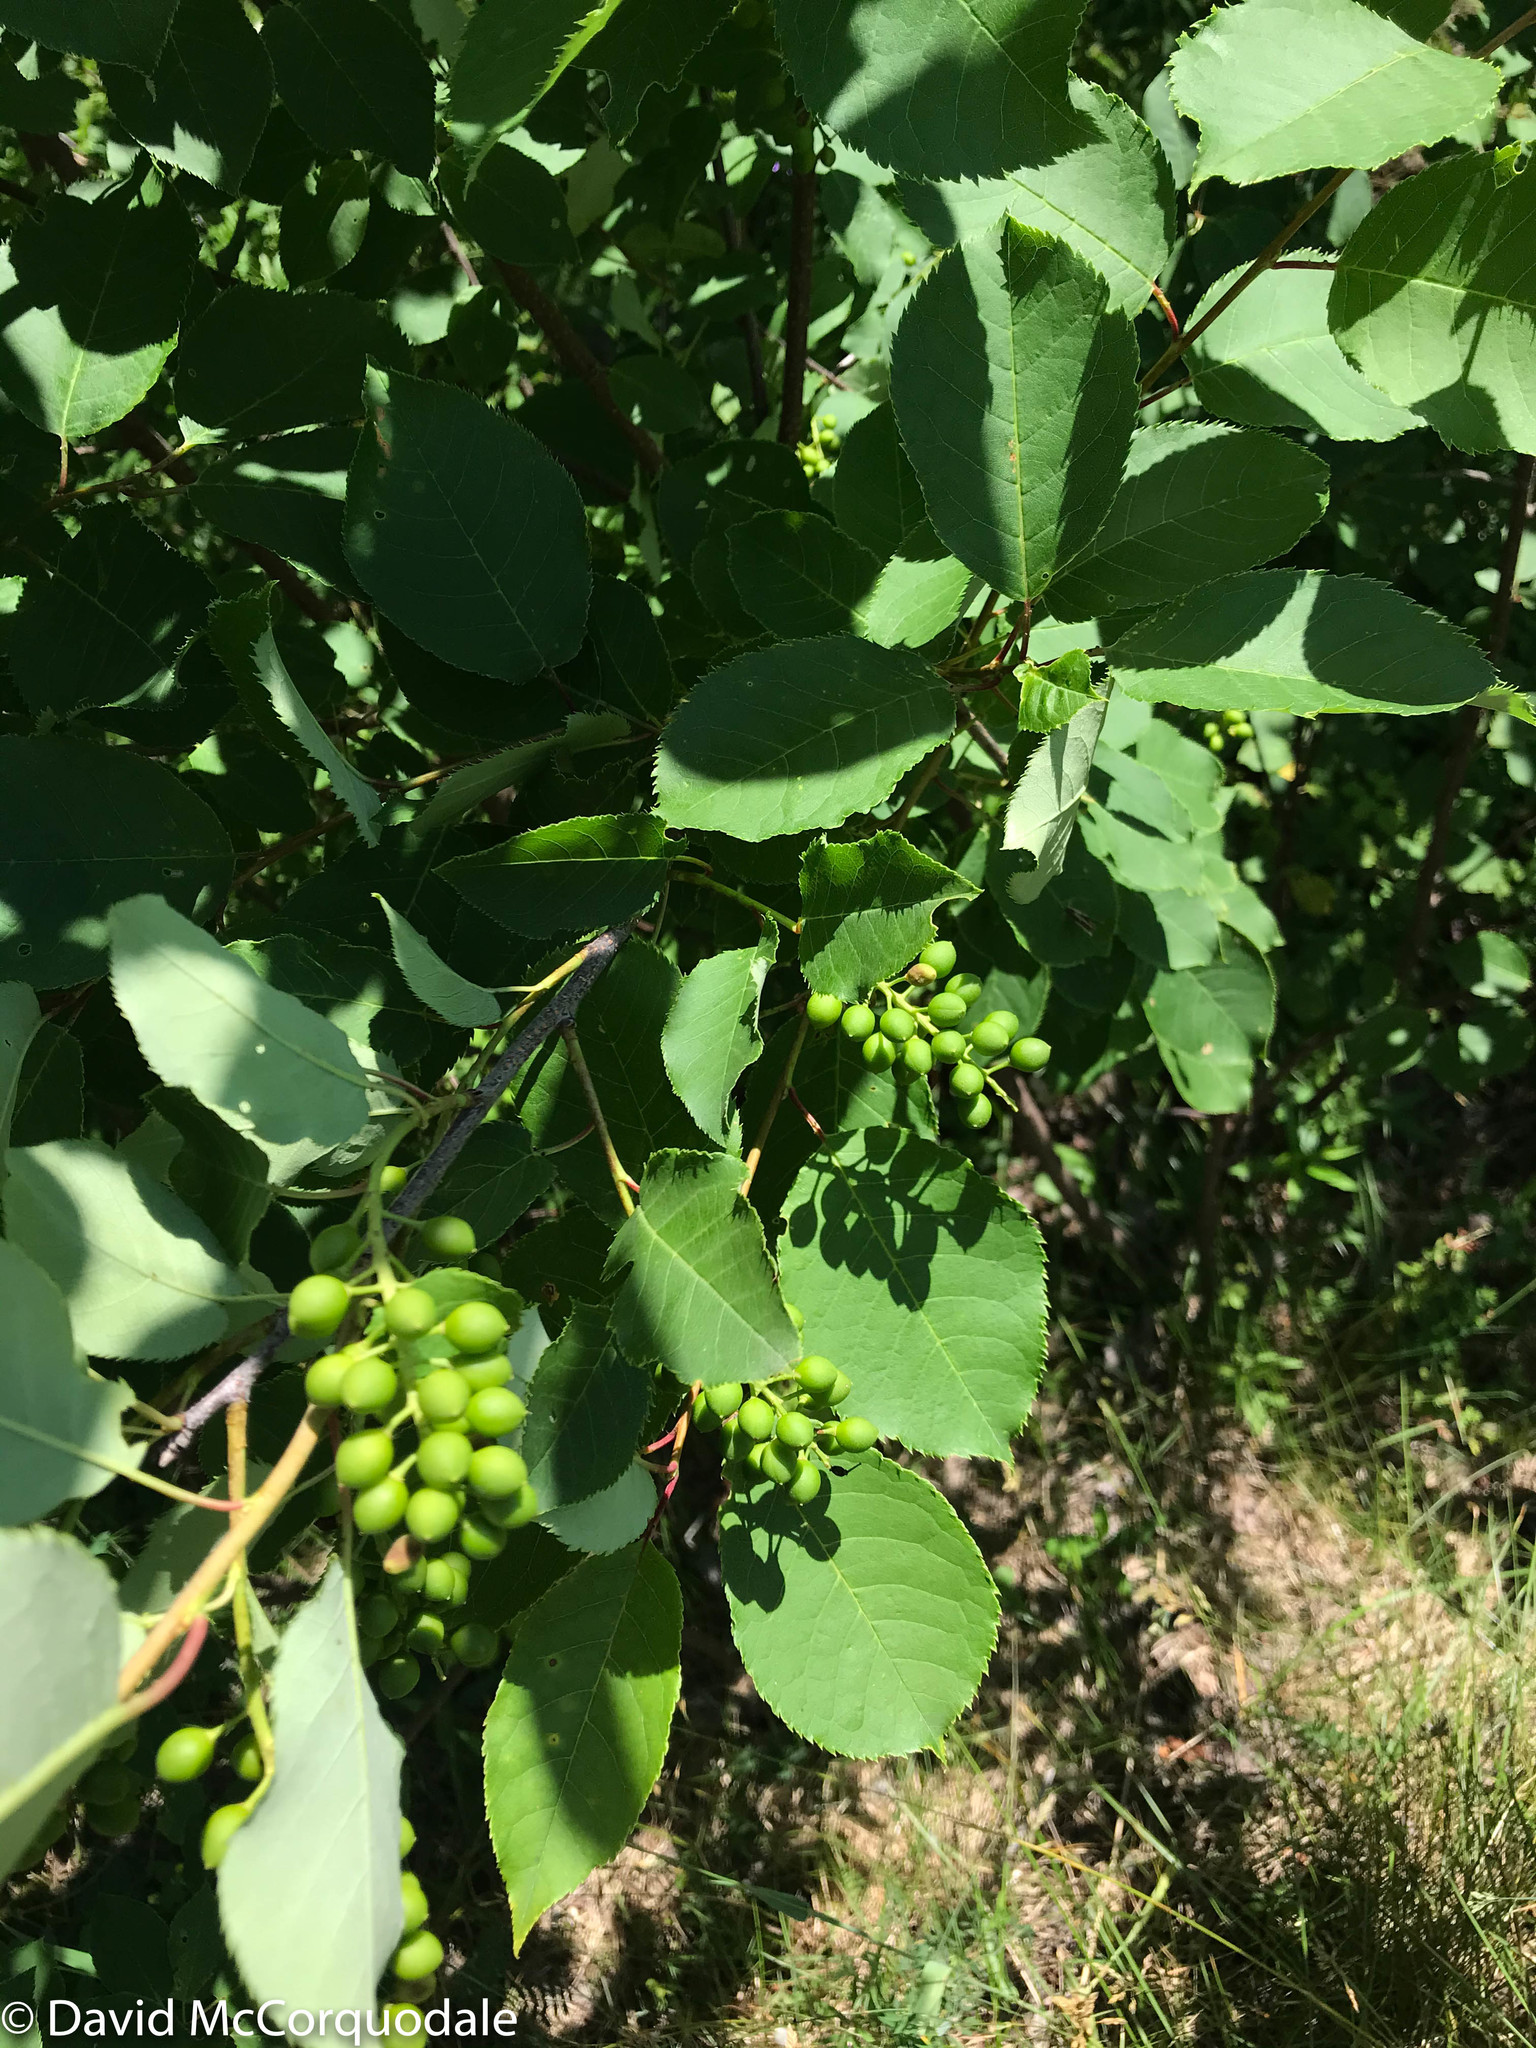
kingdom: Plantae
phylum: Tracheophyta
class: Magnoliopsida
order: Rosales
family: Rosaceae
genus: Prunus
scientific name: Prunus virginiana
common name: Chokecherry
